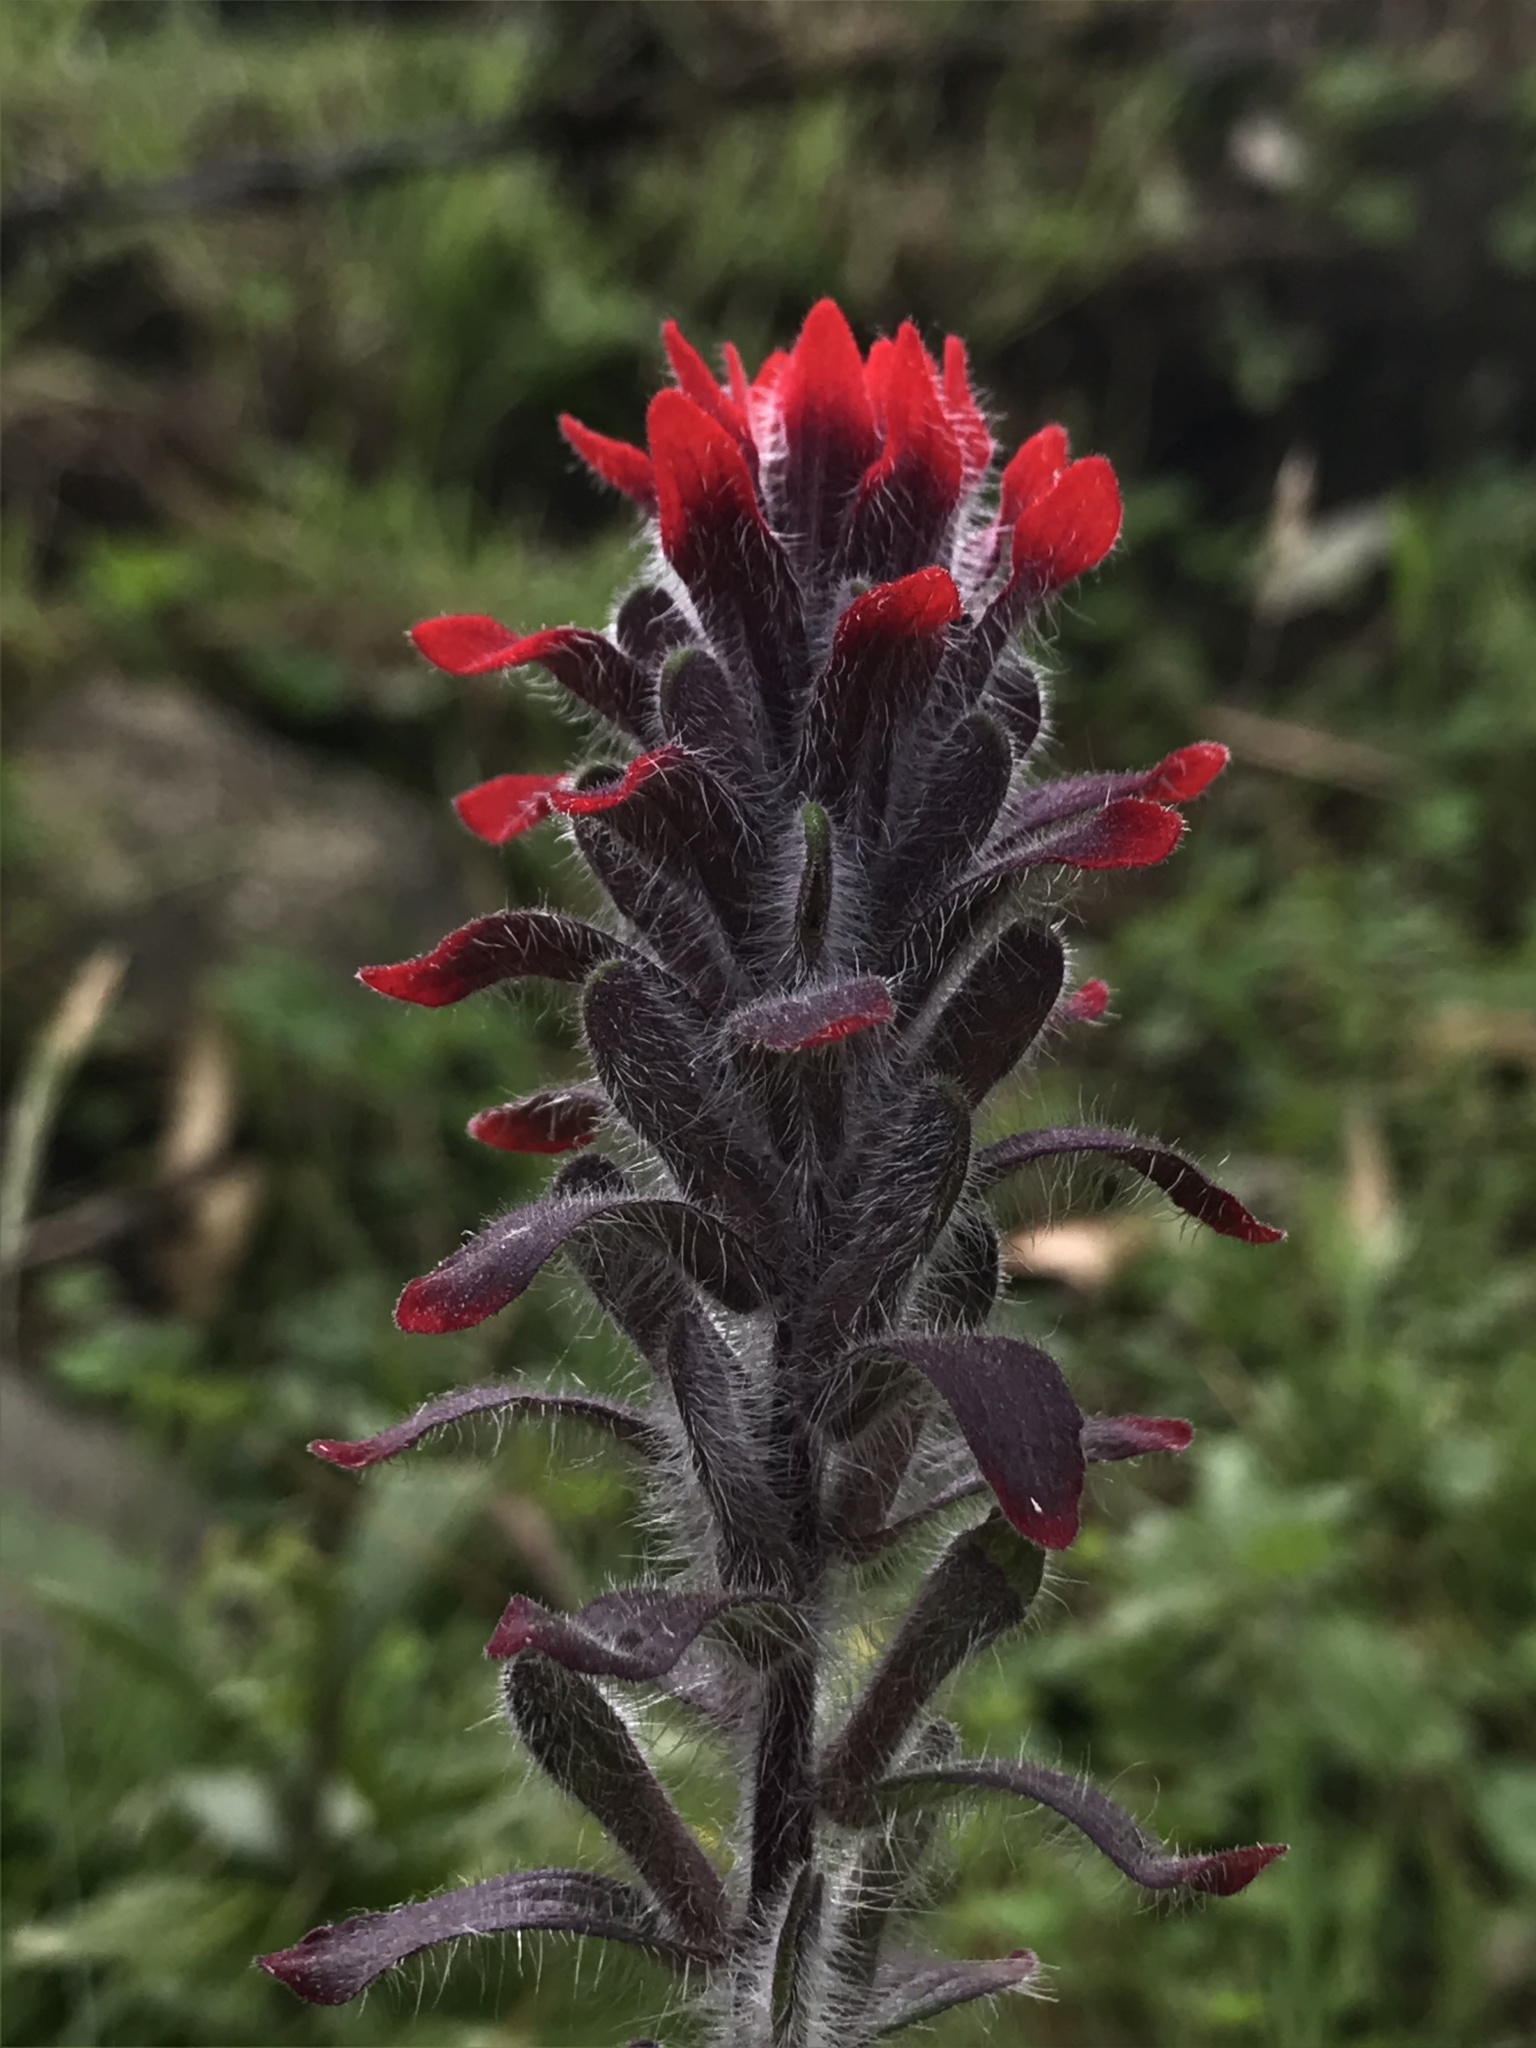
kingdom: Plantae
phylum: Tracheophyta
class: Magnoliopsida
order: Lamiales
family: Orobanchaceae
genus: Castilleja
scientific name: Castilleja arvensis
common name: Indian paintbrush
